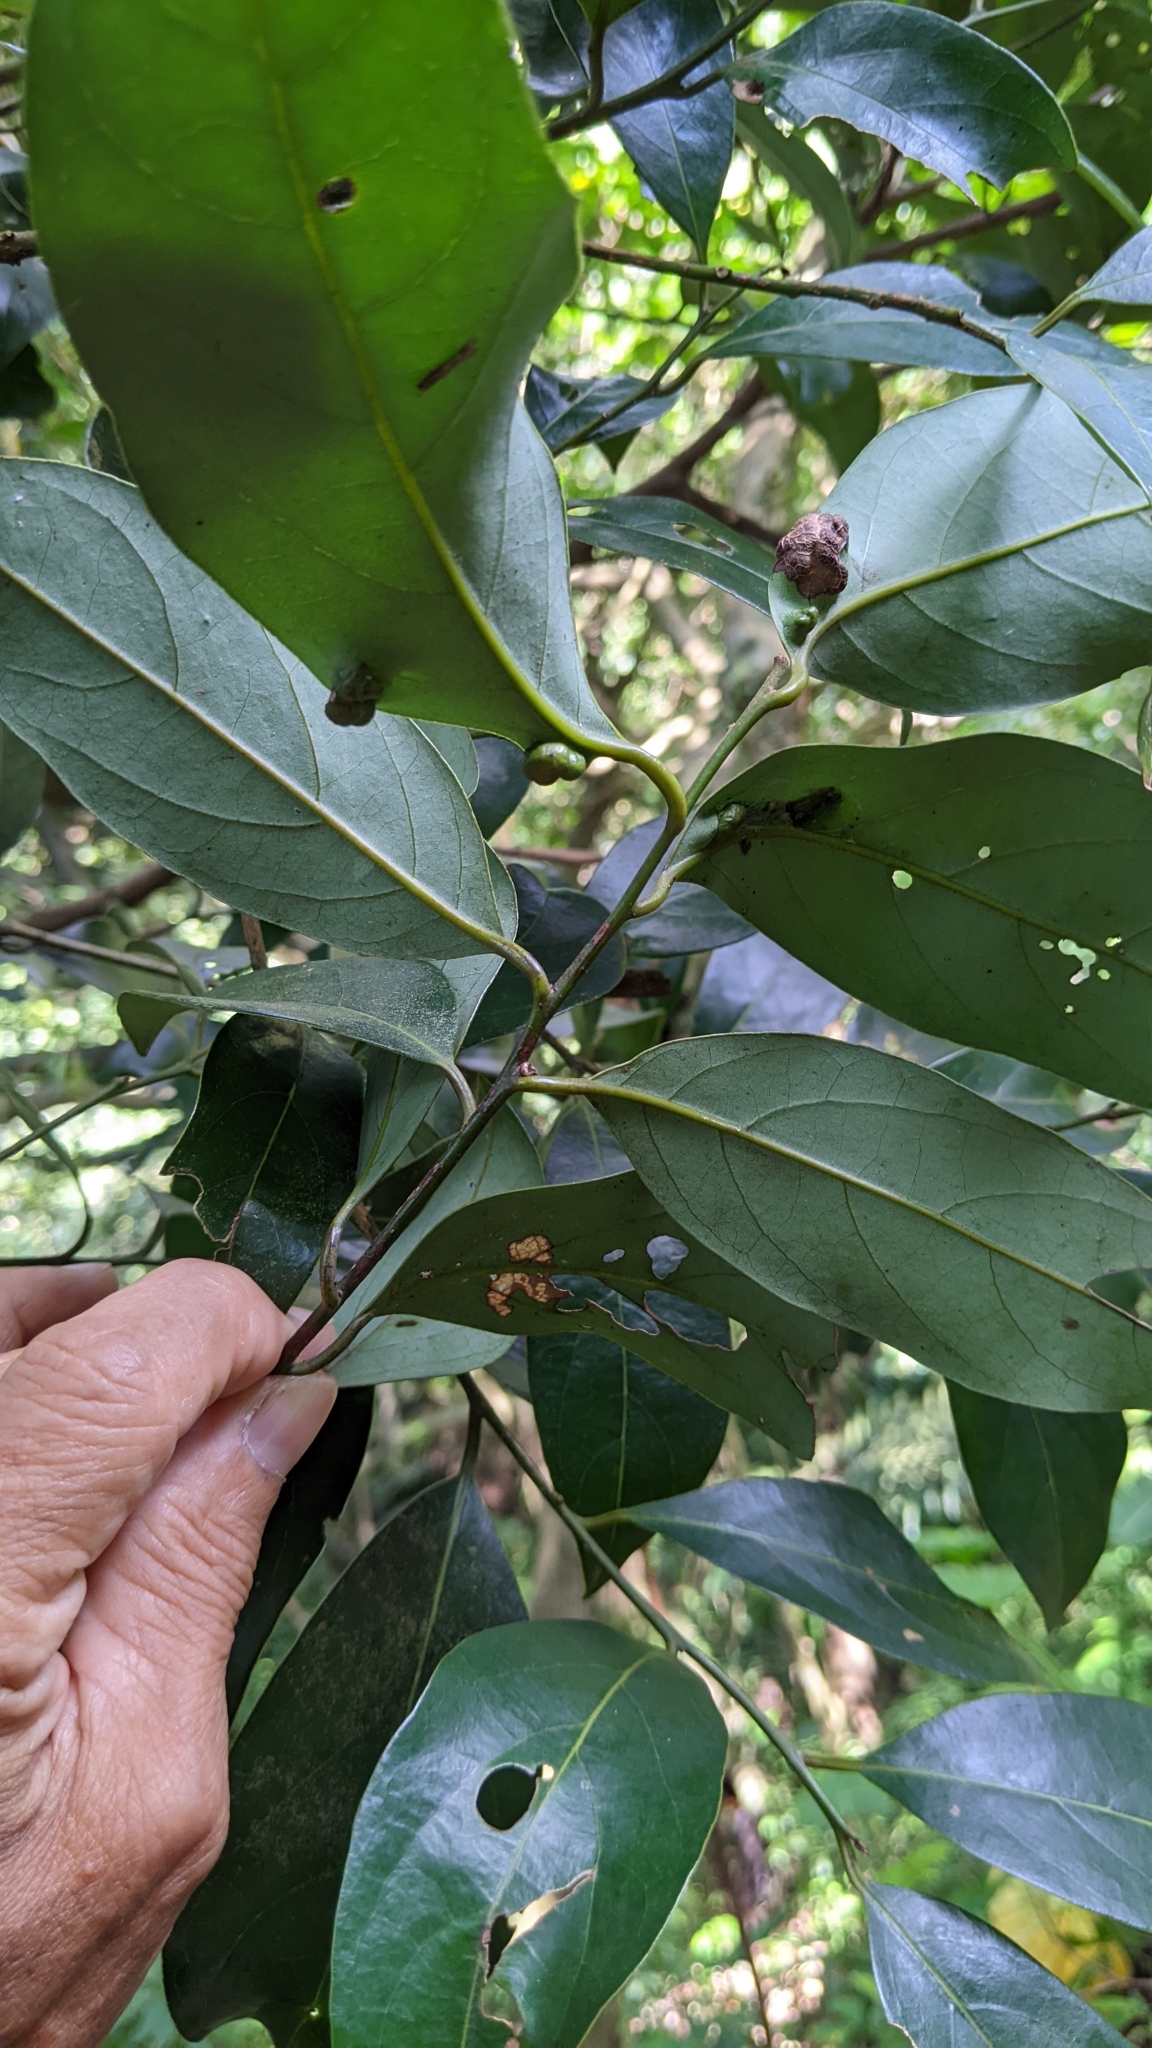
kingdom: Plantae
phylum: Tracheophyta
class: Magnoliopsida
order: Laurales
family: Lauraceae
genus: Cryptocarya
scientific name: Cryptocarya concinna
